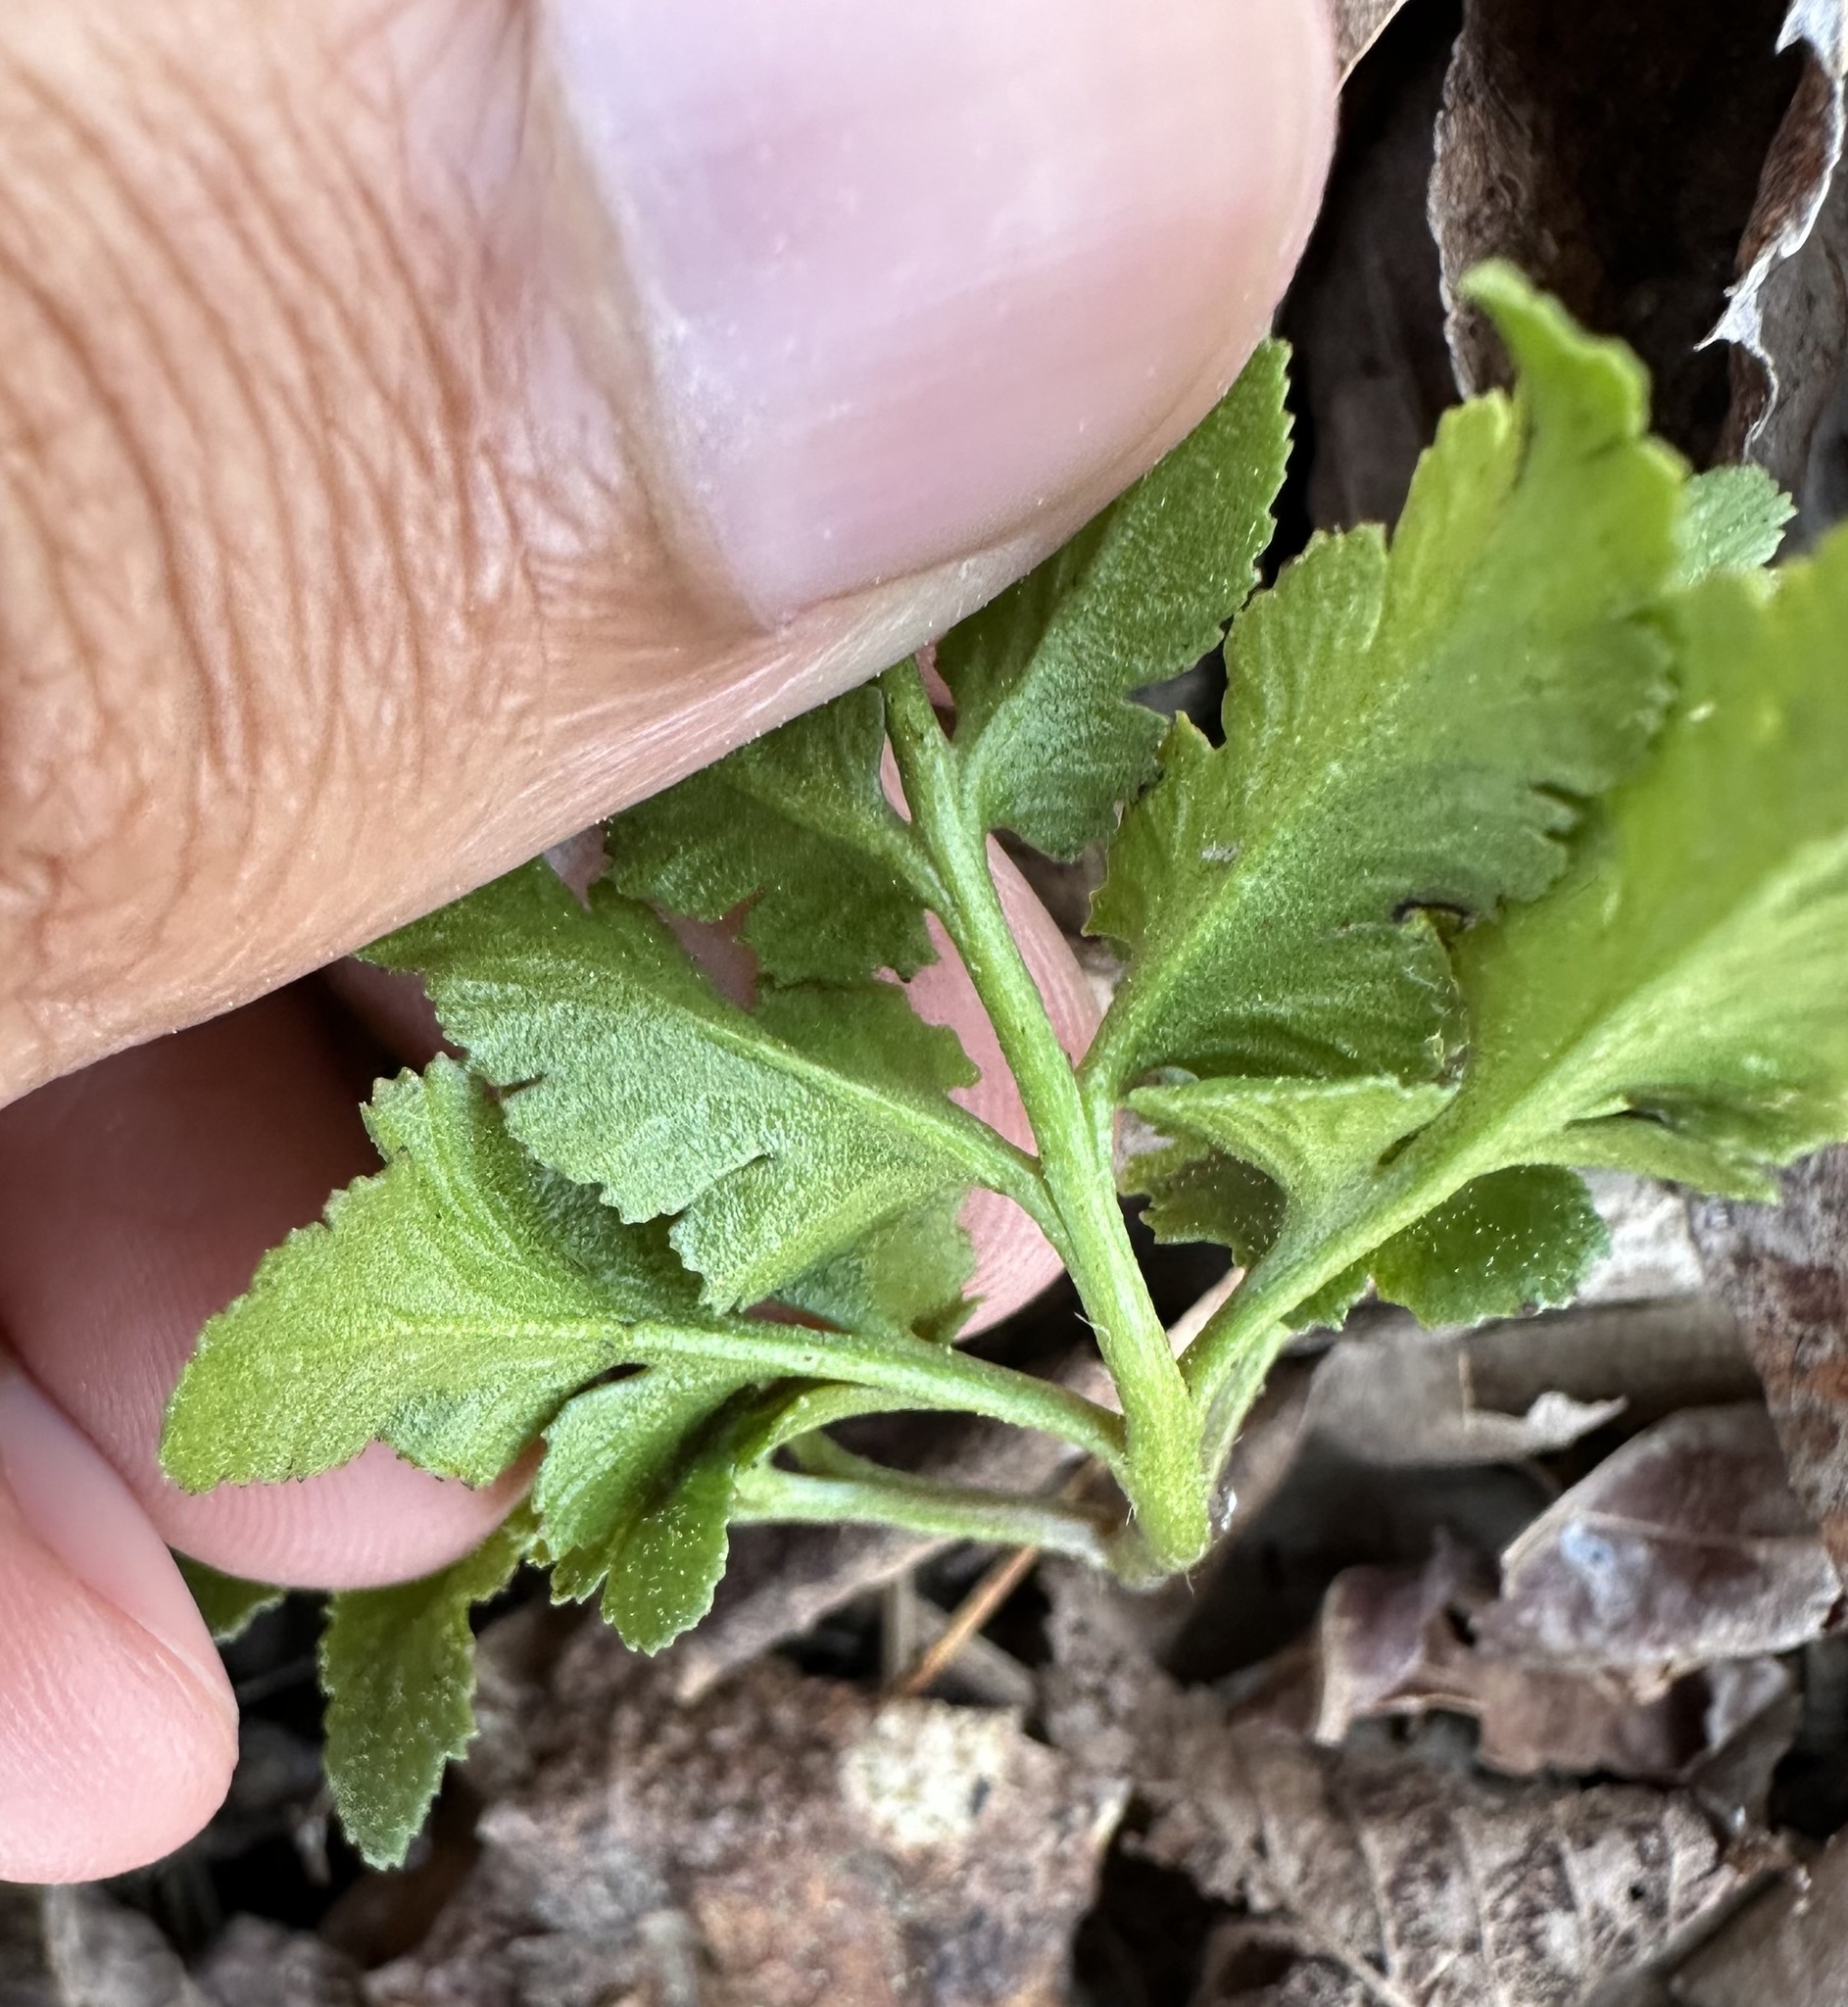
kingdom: Plantae
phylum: Tracheophyta
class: Polypodiopsida
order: Ophioglossales
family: Ophioglossaceae
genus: Sceptridium
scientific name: Sceptridium dissectum
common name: Cut-leaved grapefern
